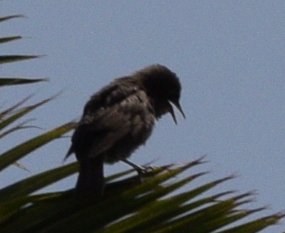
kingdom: Animalia
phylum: Chordata
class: Aves
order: Passeriformes
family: Sturnidae
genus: Sturnus
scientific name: Sturnus vulgaris
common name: Common starling
